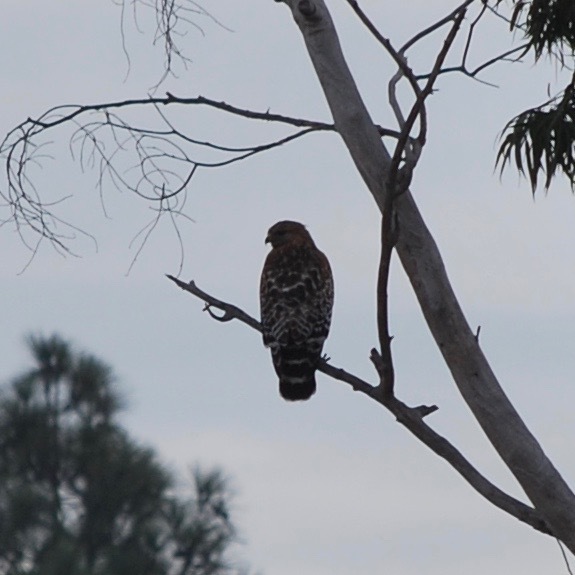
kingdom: Animalia
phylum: Chordata
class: Aves
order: Accipitriformes
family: Accipitridae
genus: Buteo
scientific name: Buteo lineatus
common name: Red-shouldered hawk
